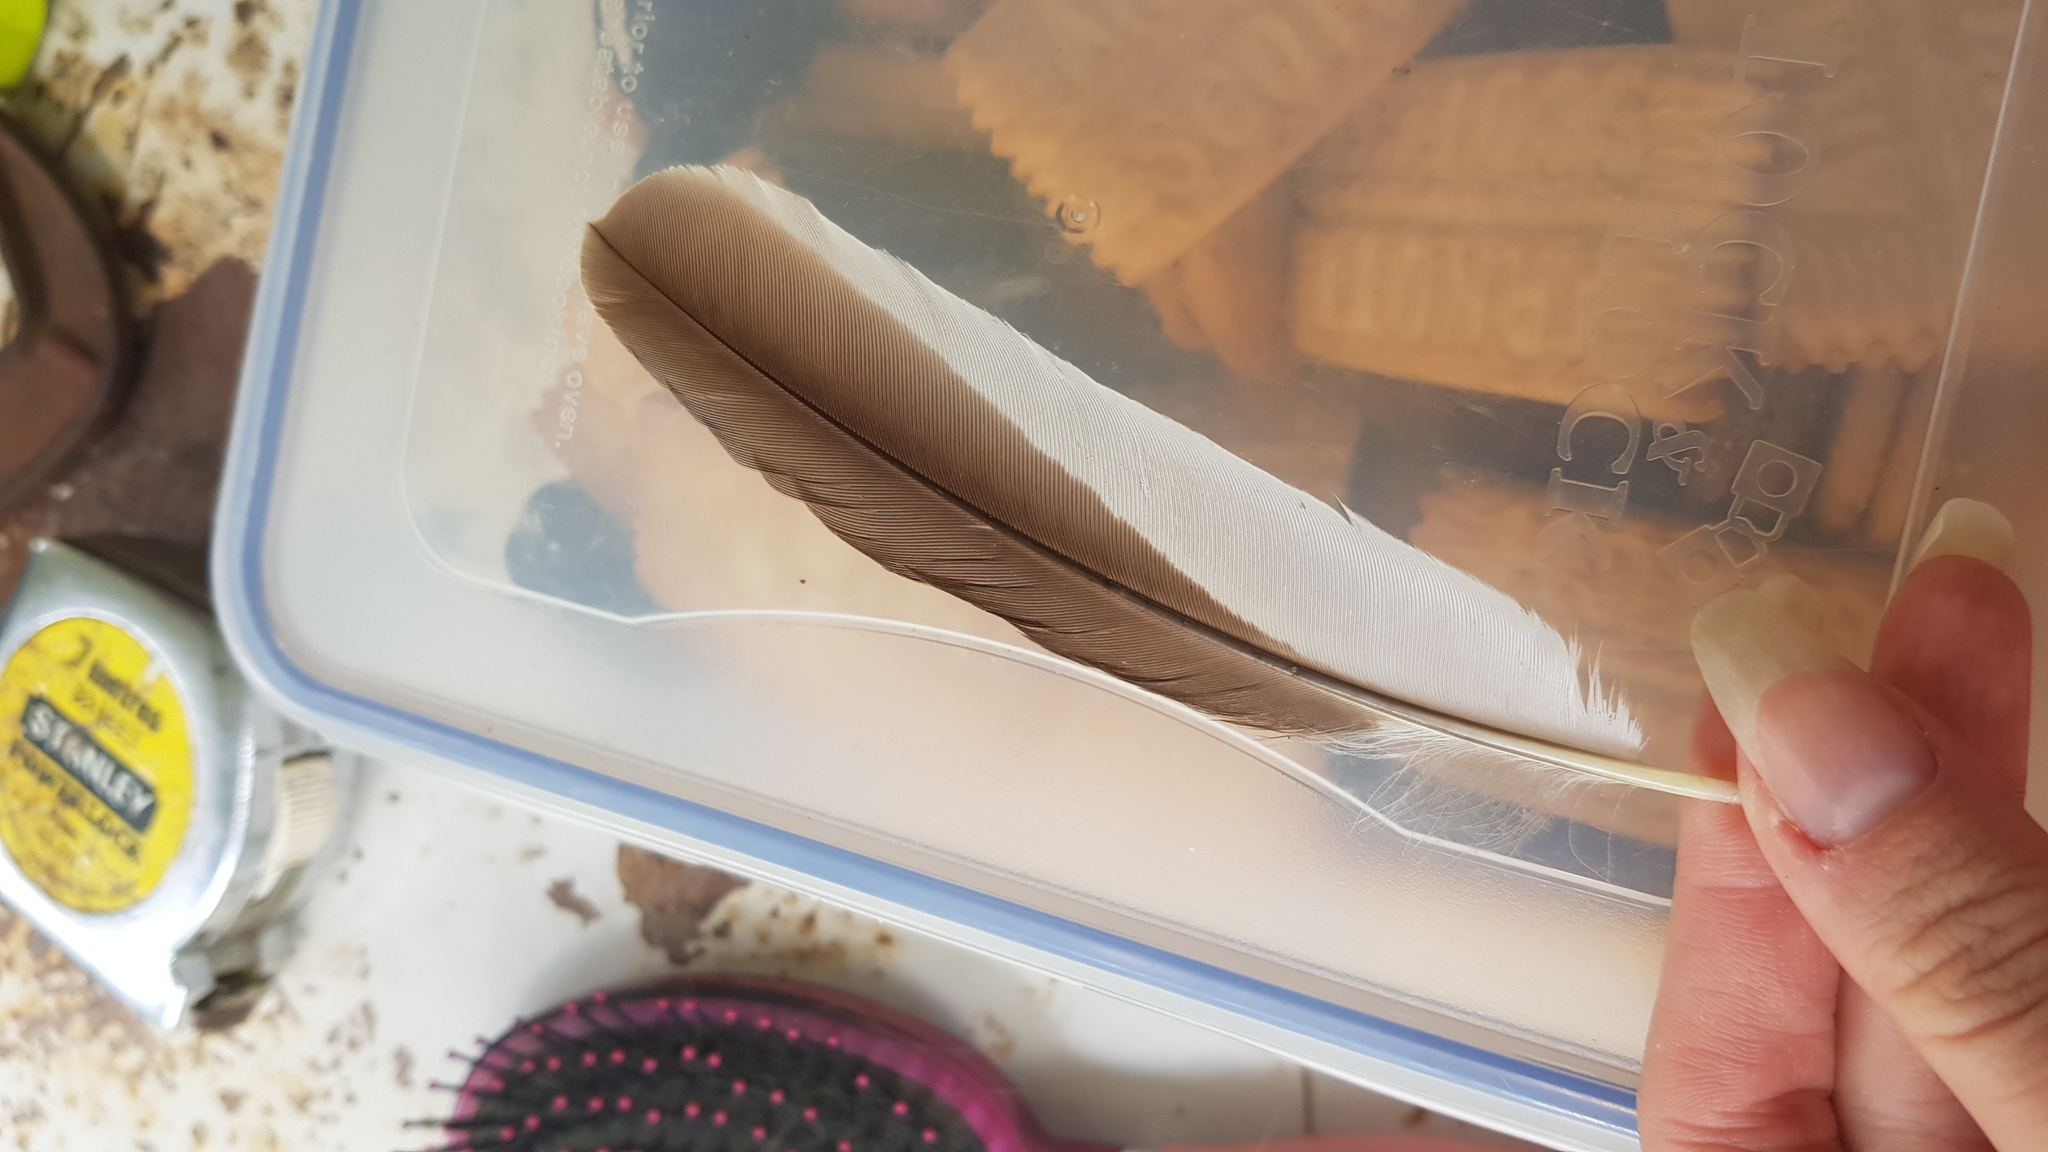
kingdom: Animalia
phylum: Chordata
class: Aves
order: Coraciiformes
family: Alcedinidae
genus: Dacelo
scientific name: Dacelo novaeguineae
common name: Laughing kookaburra
